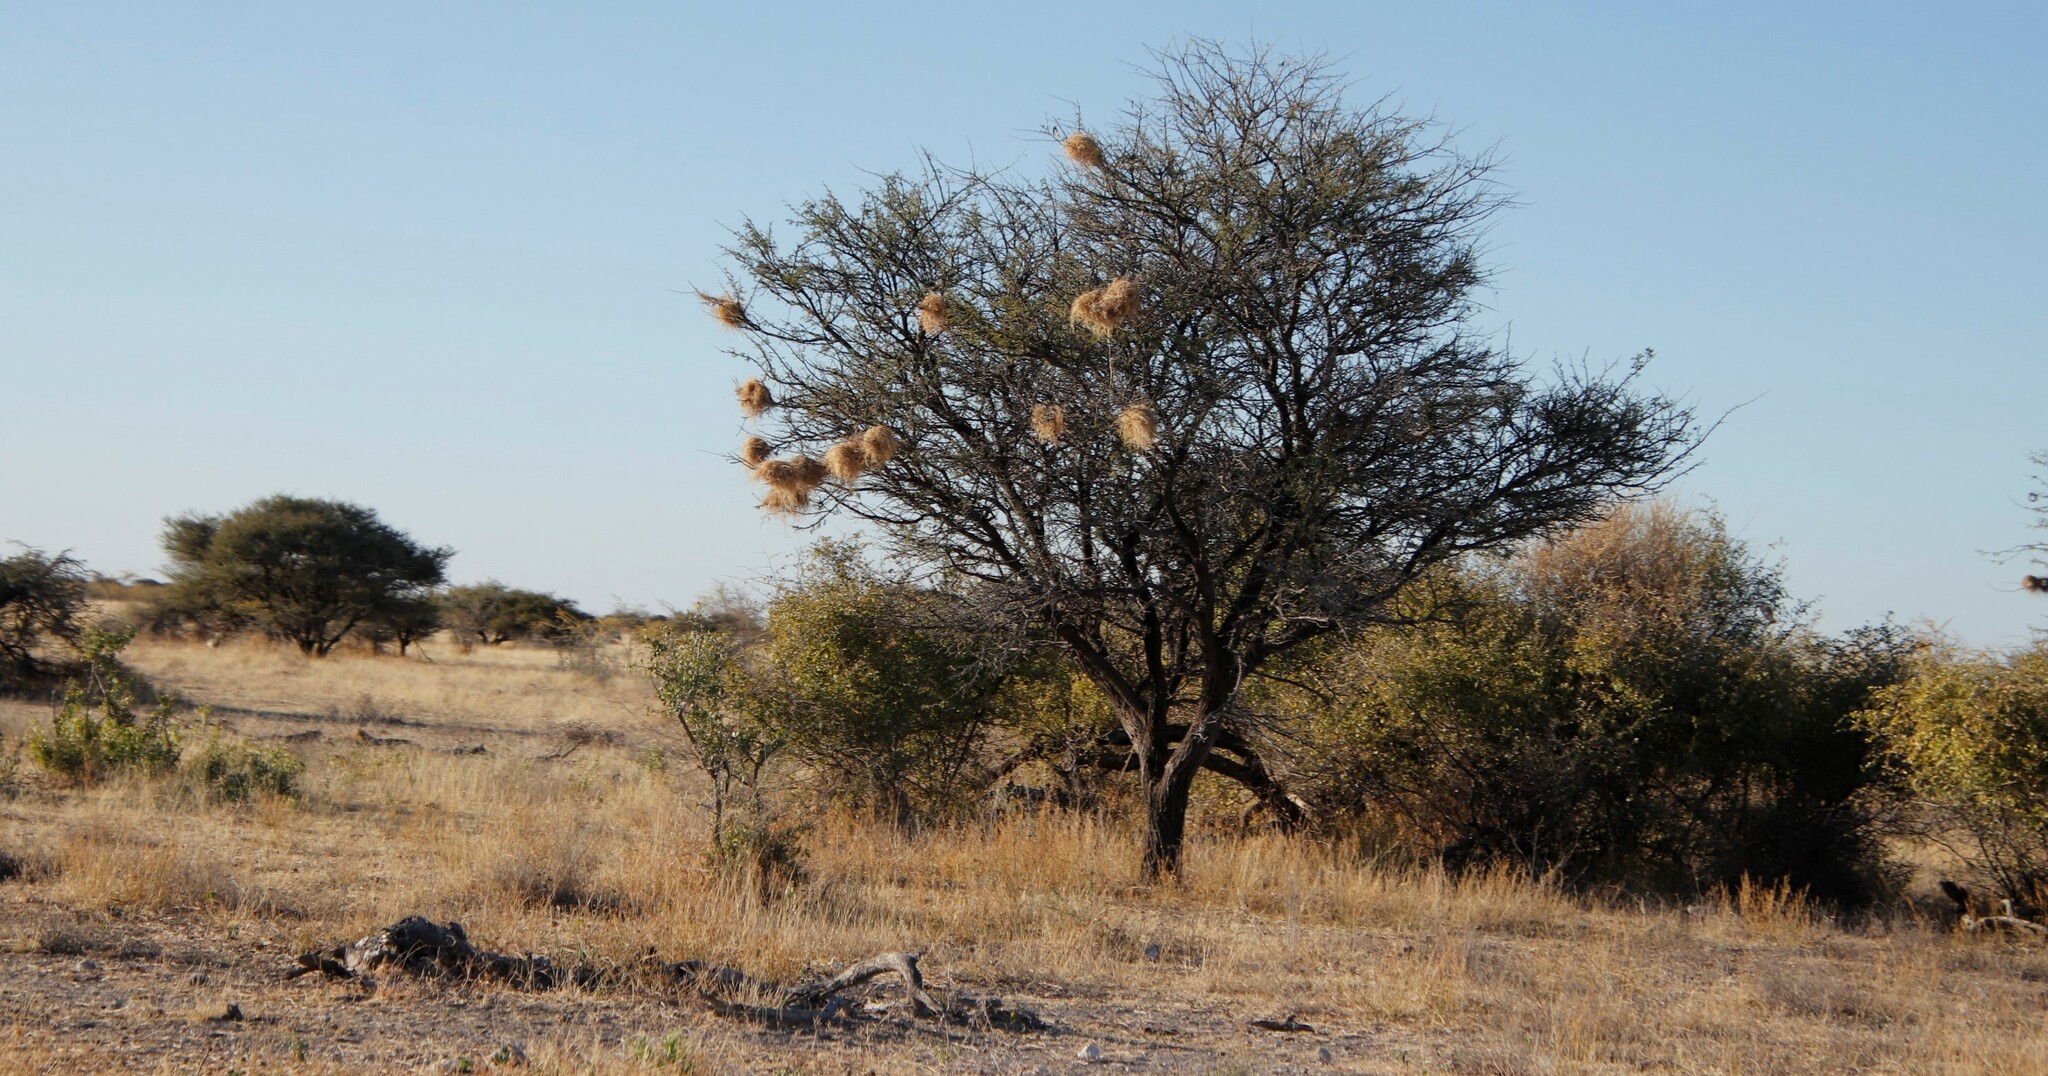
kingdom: Animalia
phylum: Chordata
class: Aves
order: Passeriformes
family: Passeridae
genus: Plocepasser
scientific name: Plocepasser mahali
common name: White-browed sparrow-weaver
